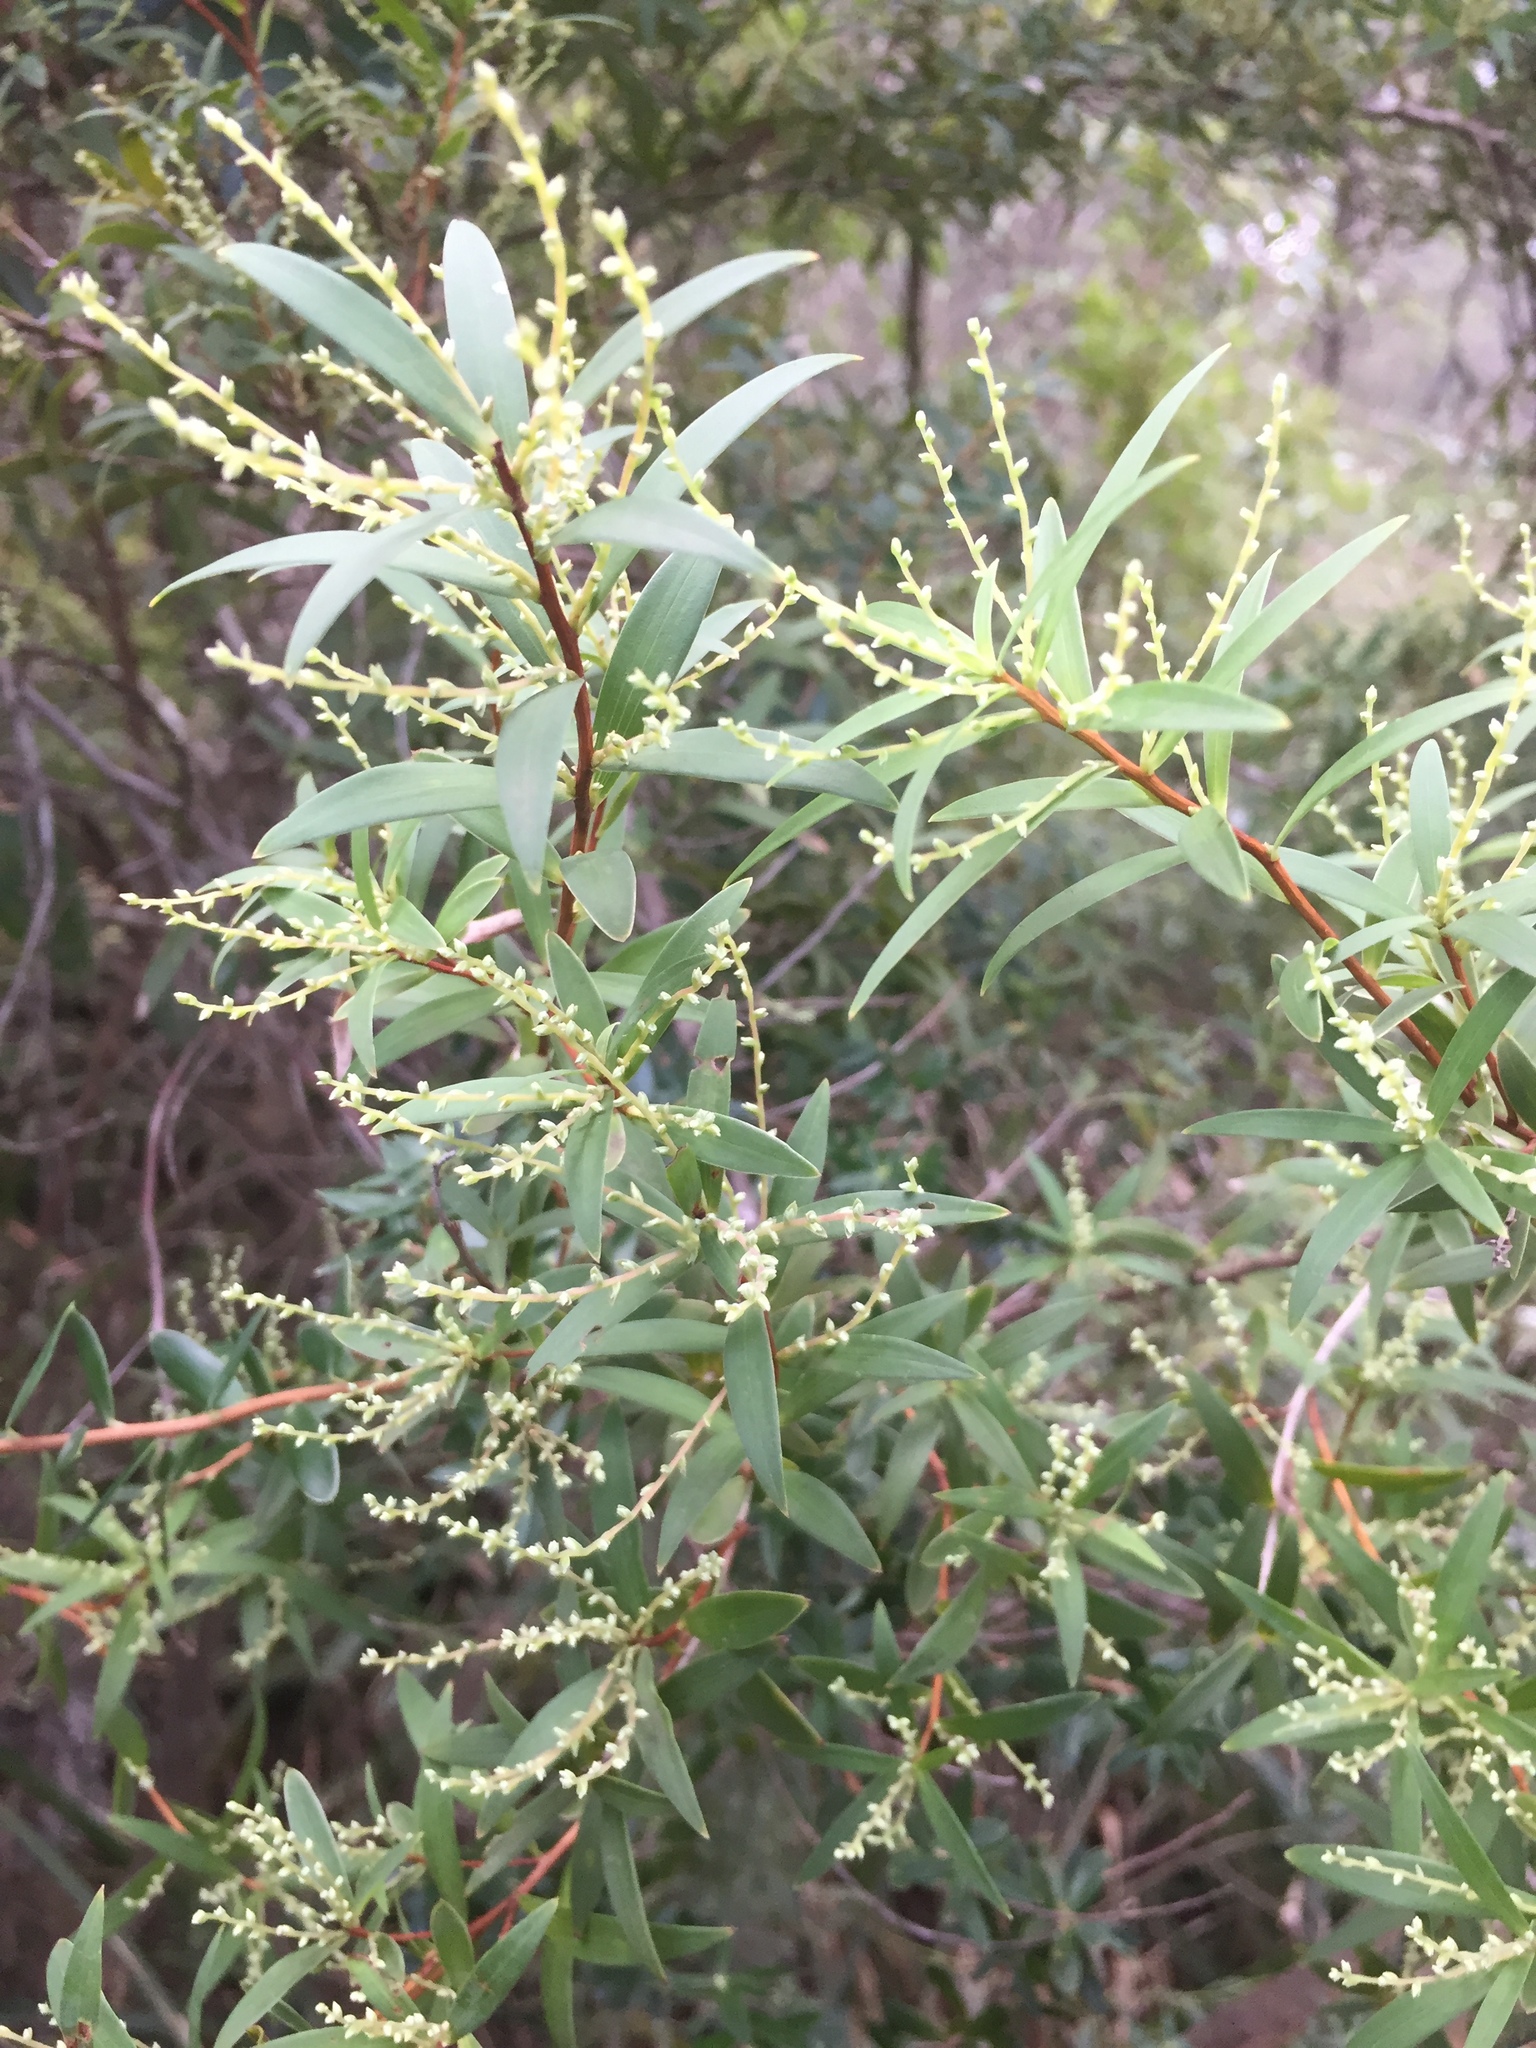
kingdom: Plantae
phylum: Tracheophyta
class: Magnoliopsida
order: Ericales
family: Ericaceae
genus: Leucopogon
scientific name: Leucopogon lanceolatus
